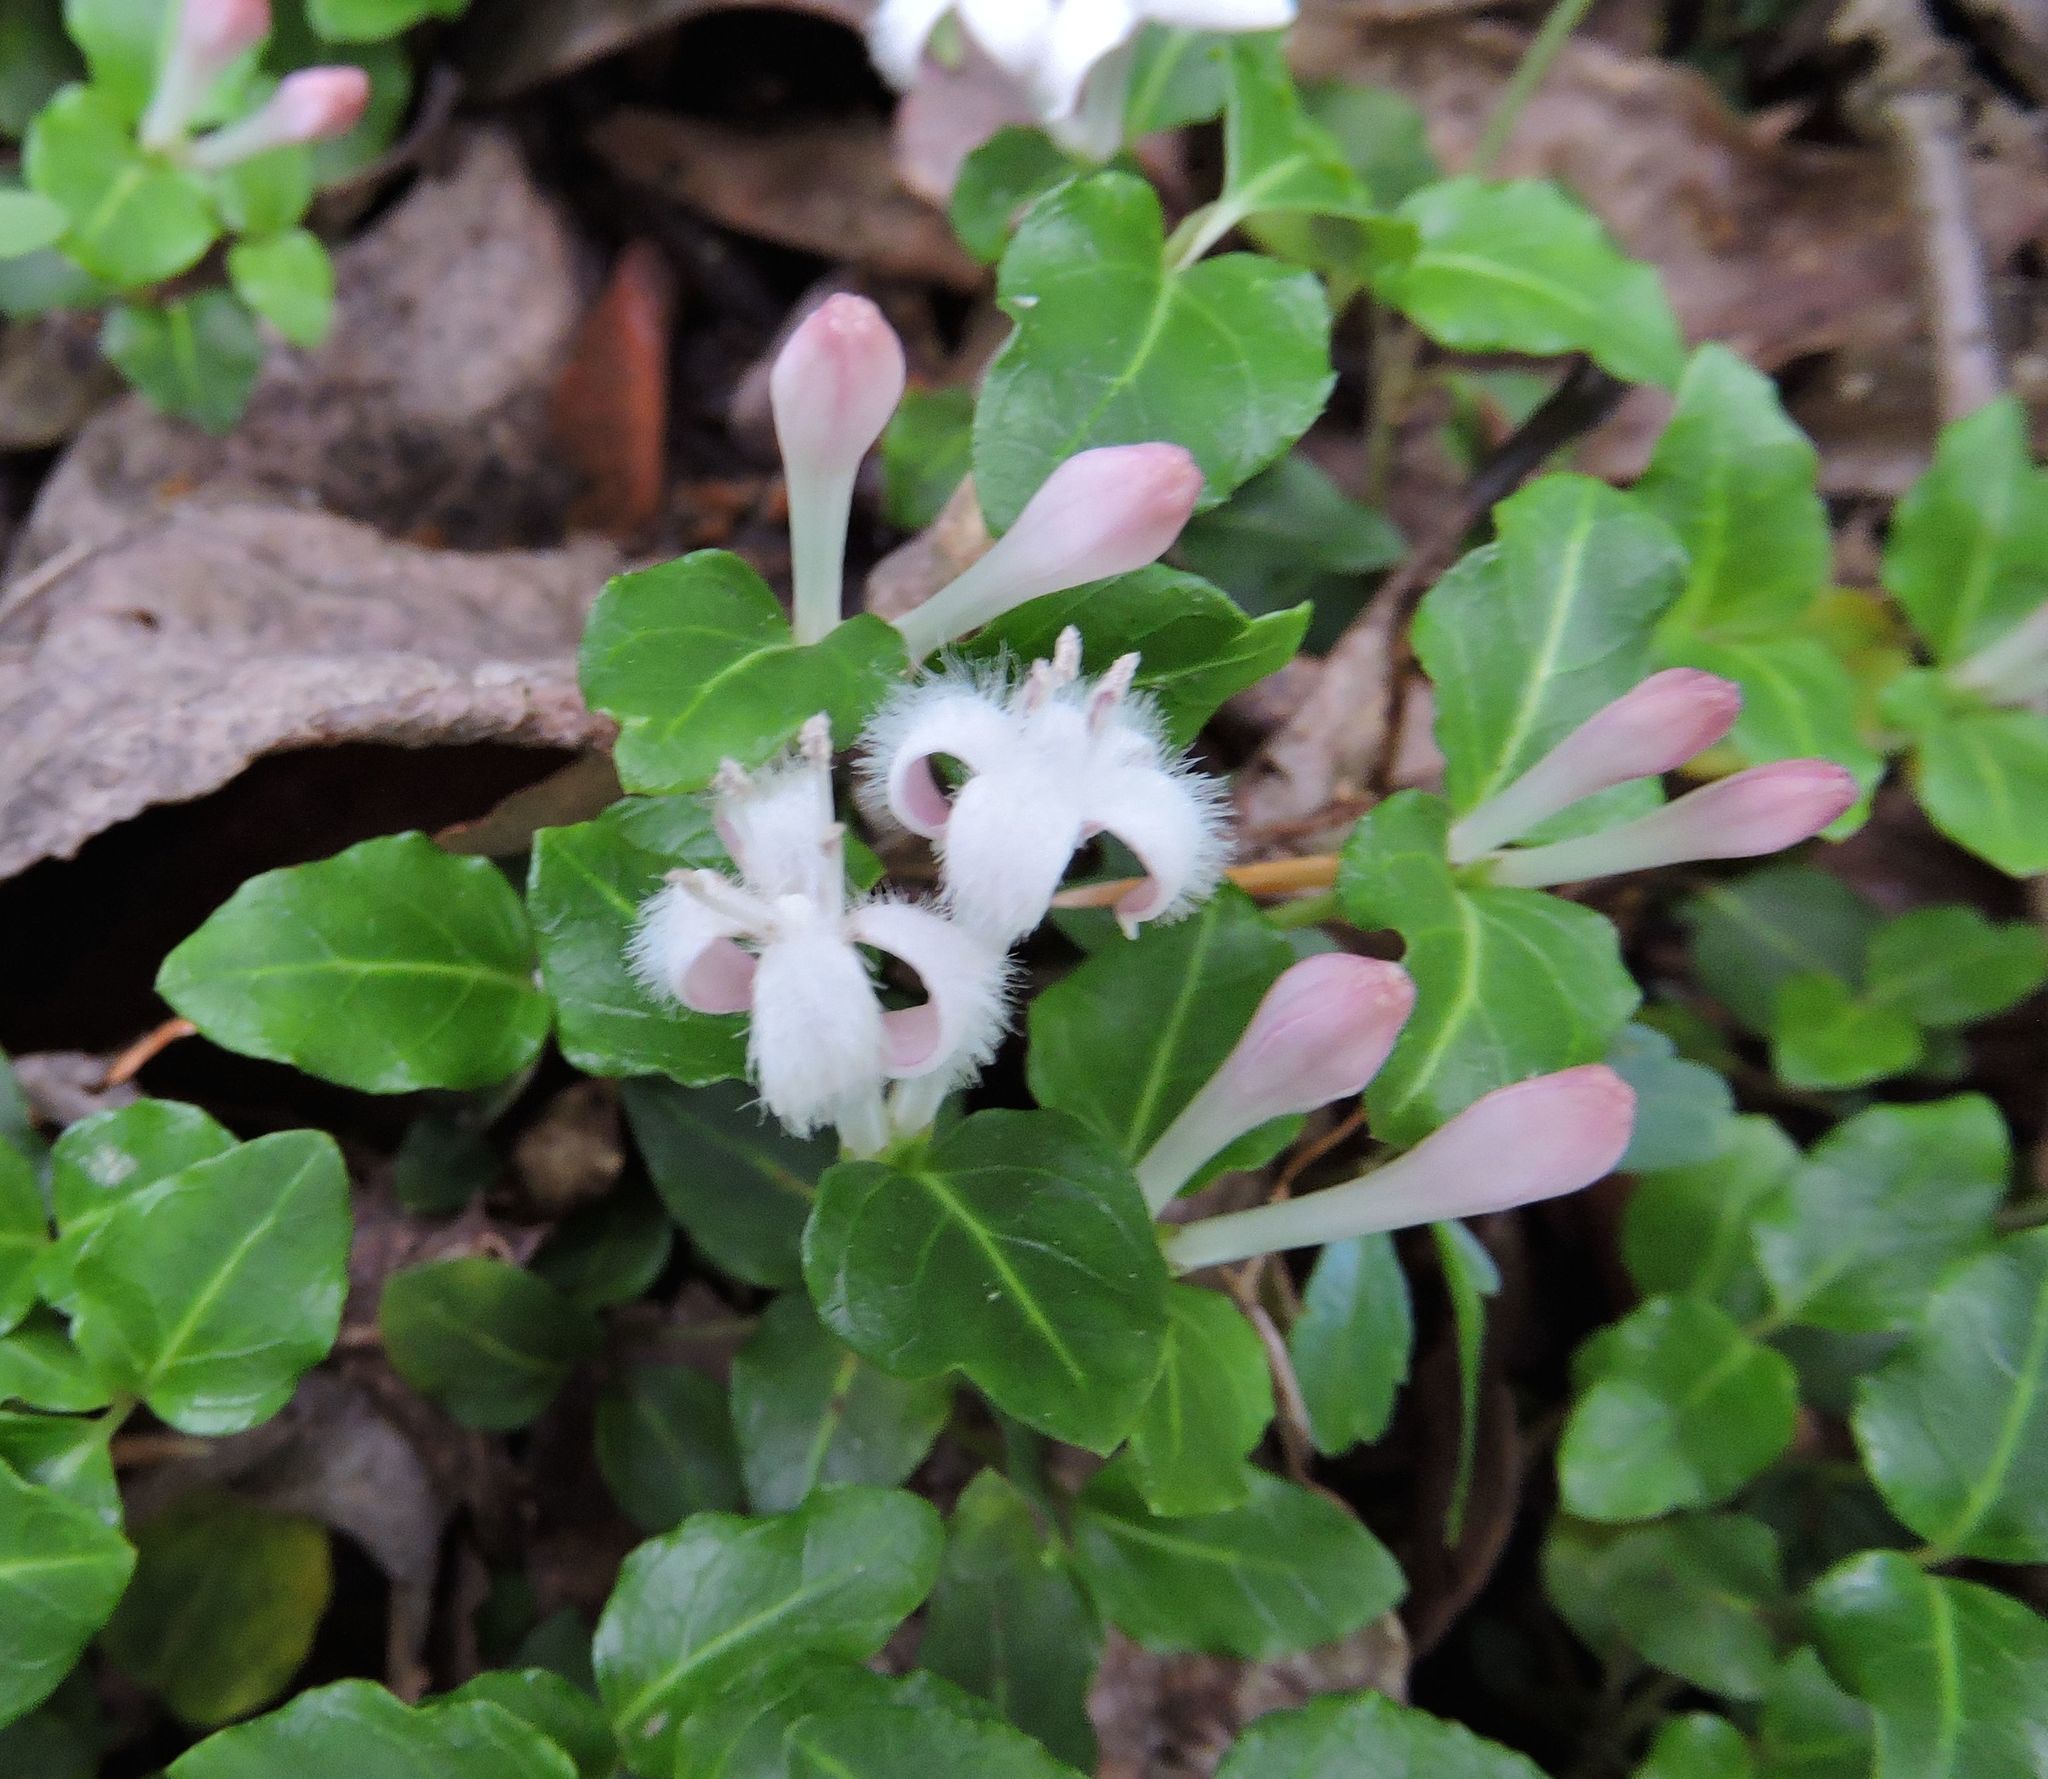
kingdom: Plantae
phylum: Tracheophyta
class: Magnoliopsida
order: Gentianales
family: Rubiaceae
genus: Mitchella
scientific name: Mitchella repens
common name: Partridge-berry
